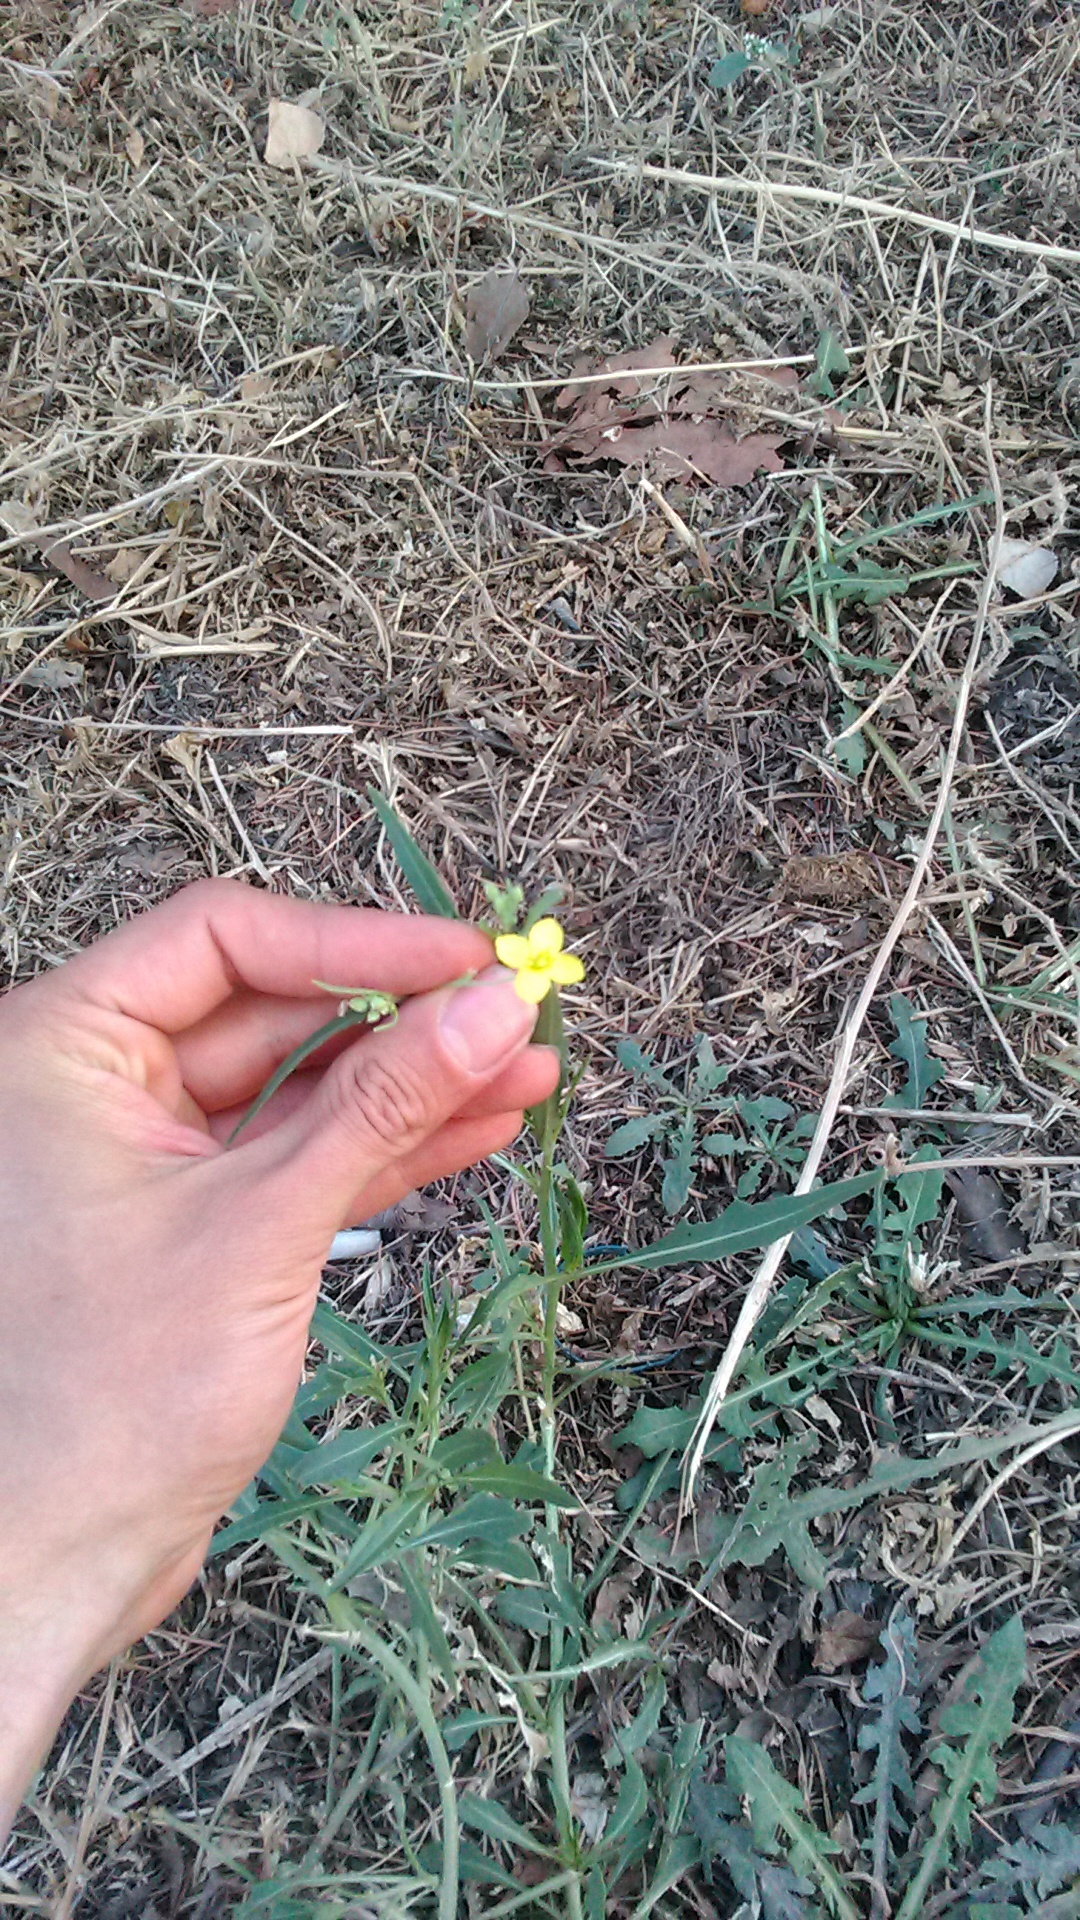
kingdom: Plantae
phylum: Tracheophyta
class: Magnoliopsida
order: Brassicales
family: Brassicaceae
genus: Diplotaxis
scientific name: Diplotaxis tenuifolia
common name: Perennial wall-rocket
